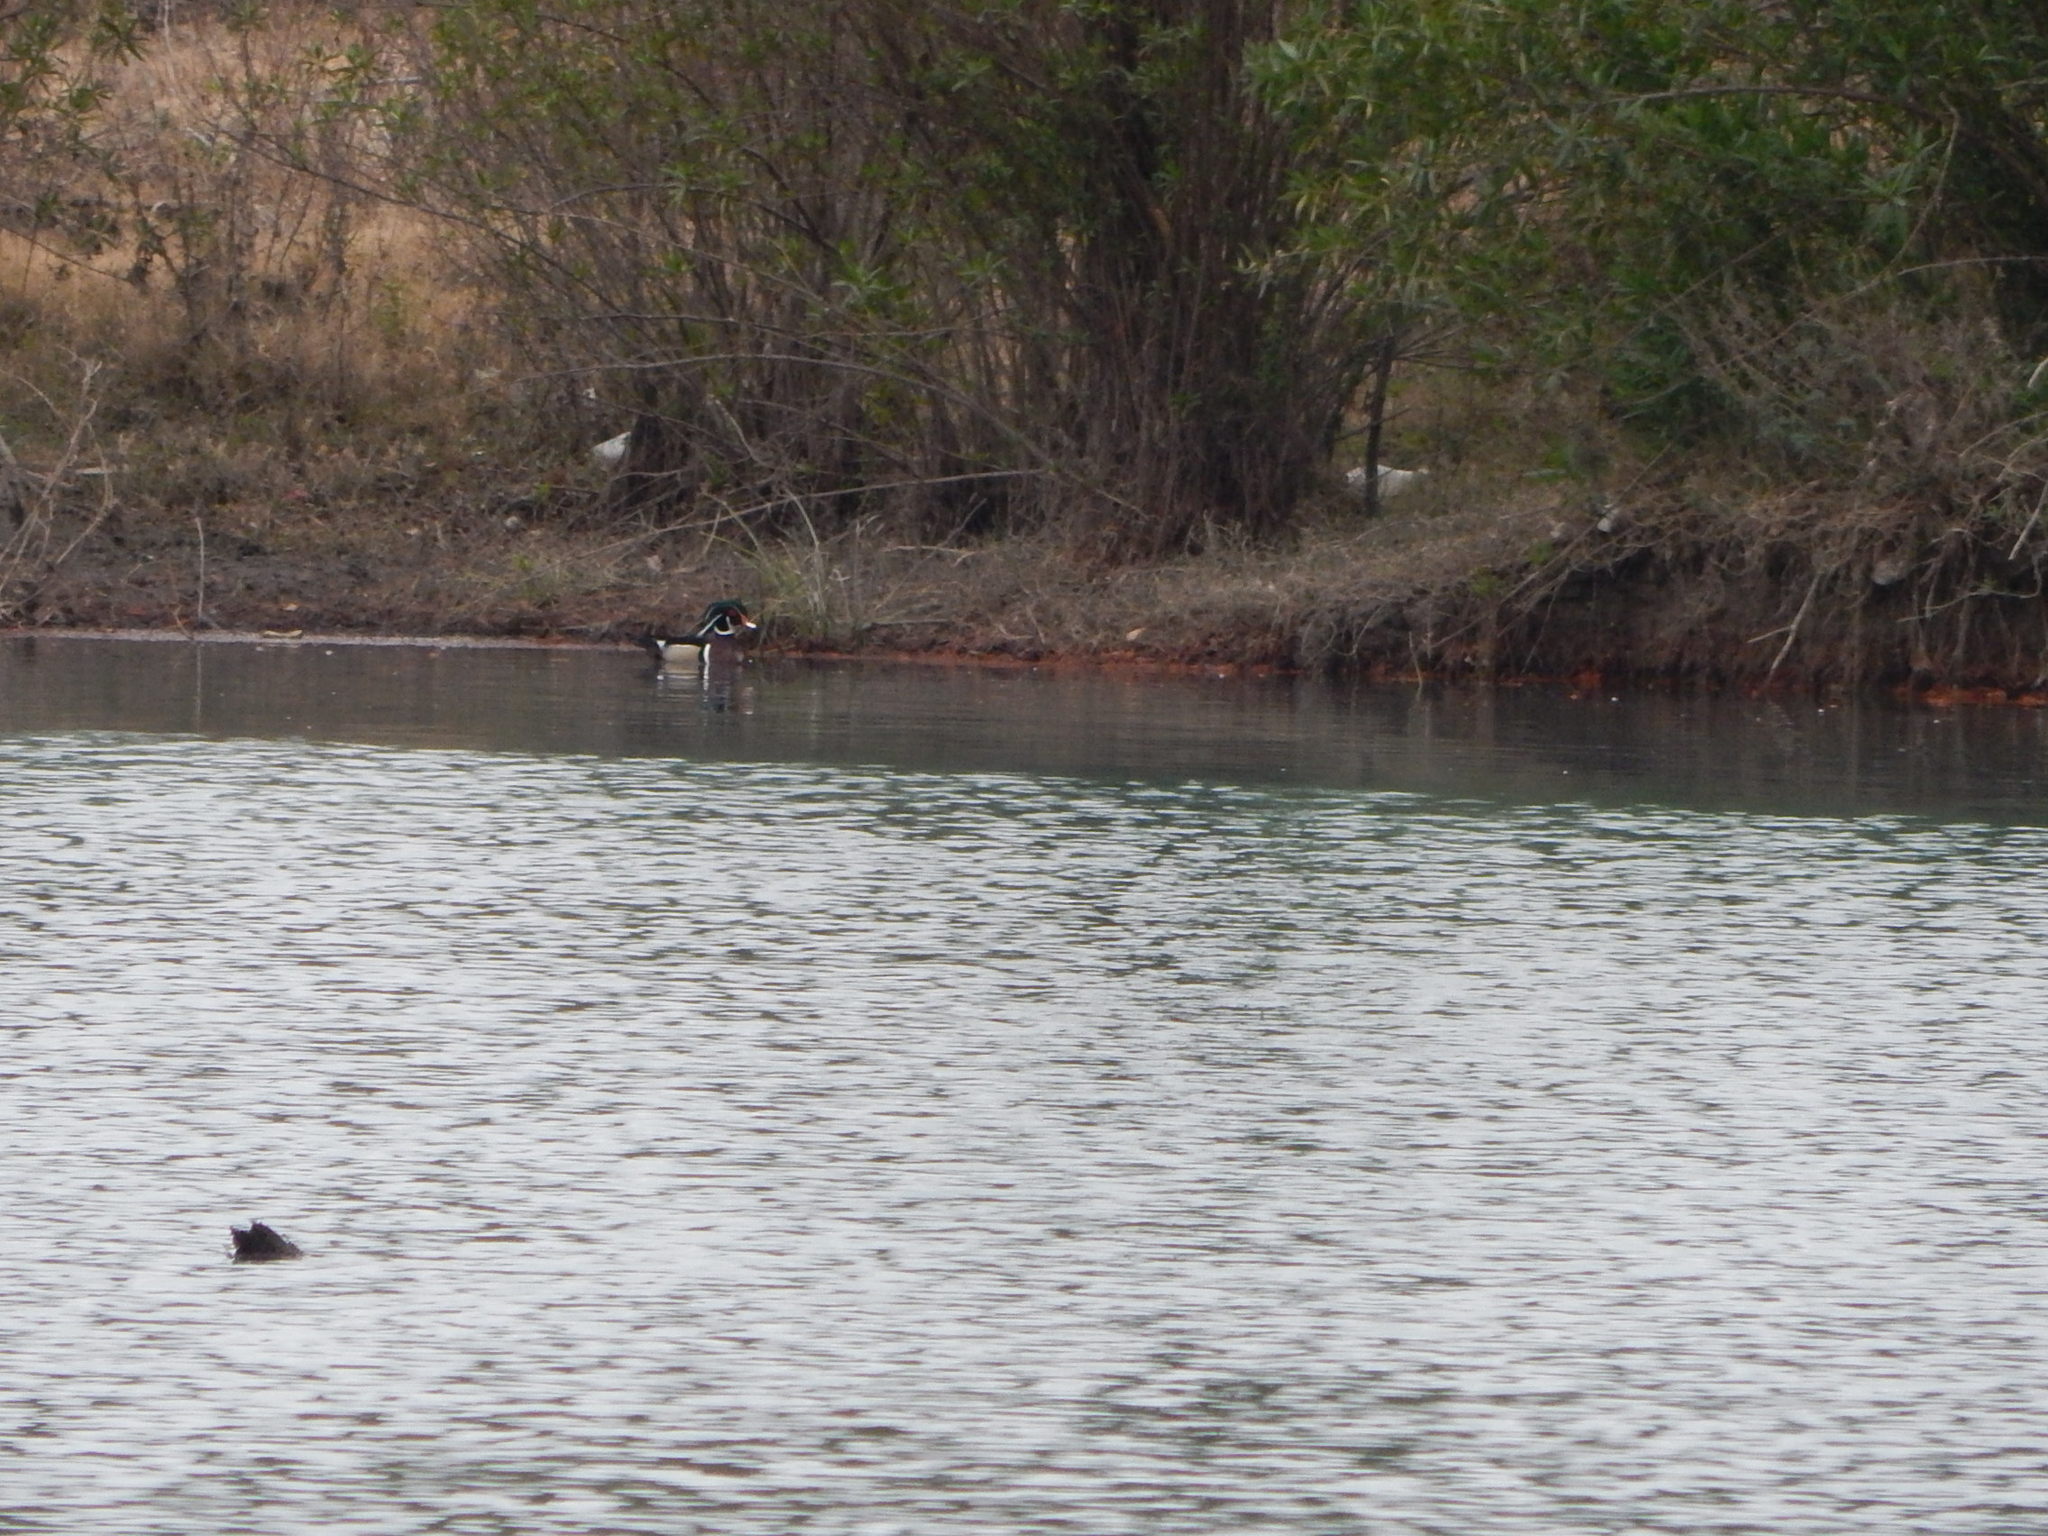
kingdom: Animalia
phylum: Chordata
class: Aves
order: Anseriformes
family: Anatidae
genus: Aix
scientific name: Aix sponsa
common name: Wood duck
